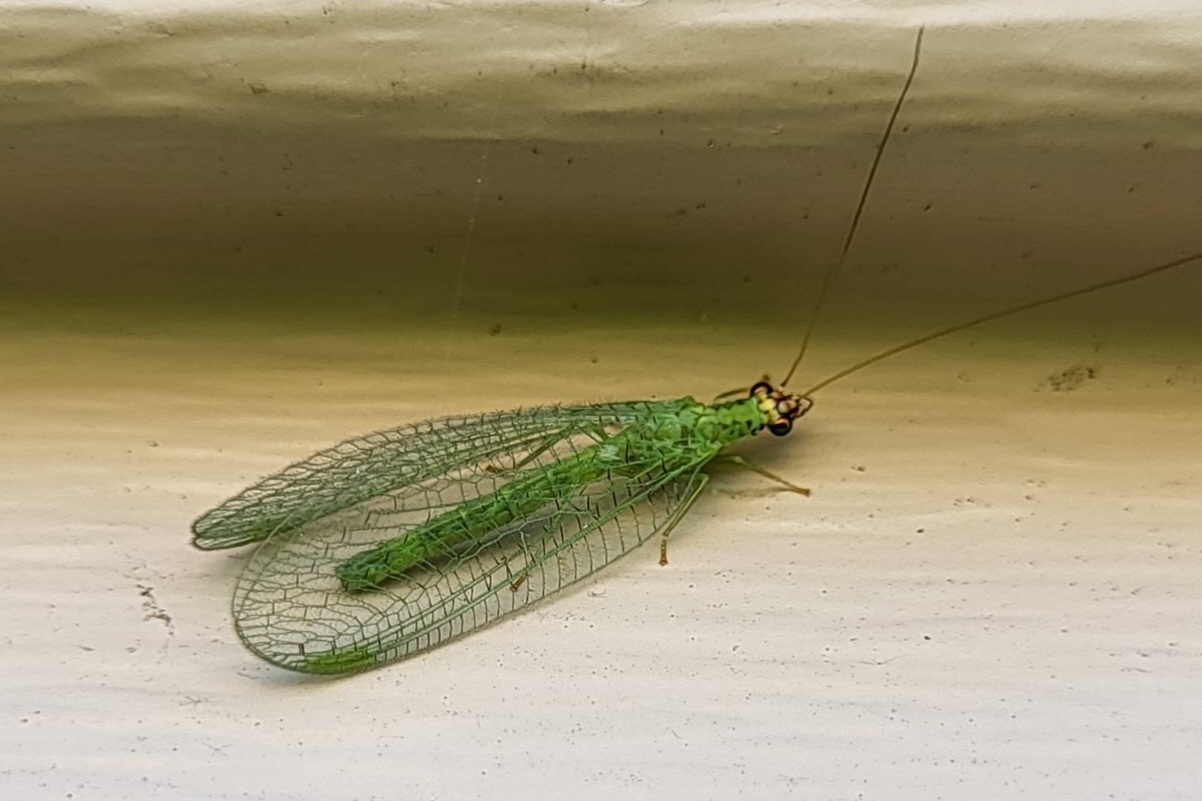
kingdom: Animalia
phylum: Arthropoda
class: Insecta
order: Neuroptera
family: Chrysopidae
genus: Chrysopa
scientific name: Chrysopa oculata
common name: Golden-eyed lacewing
